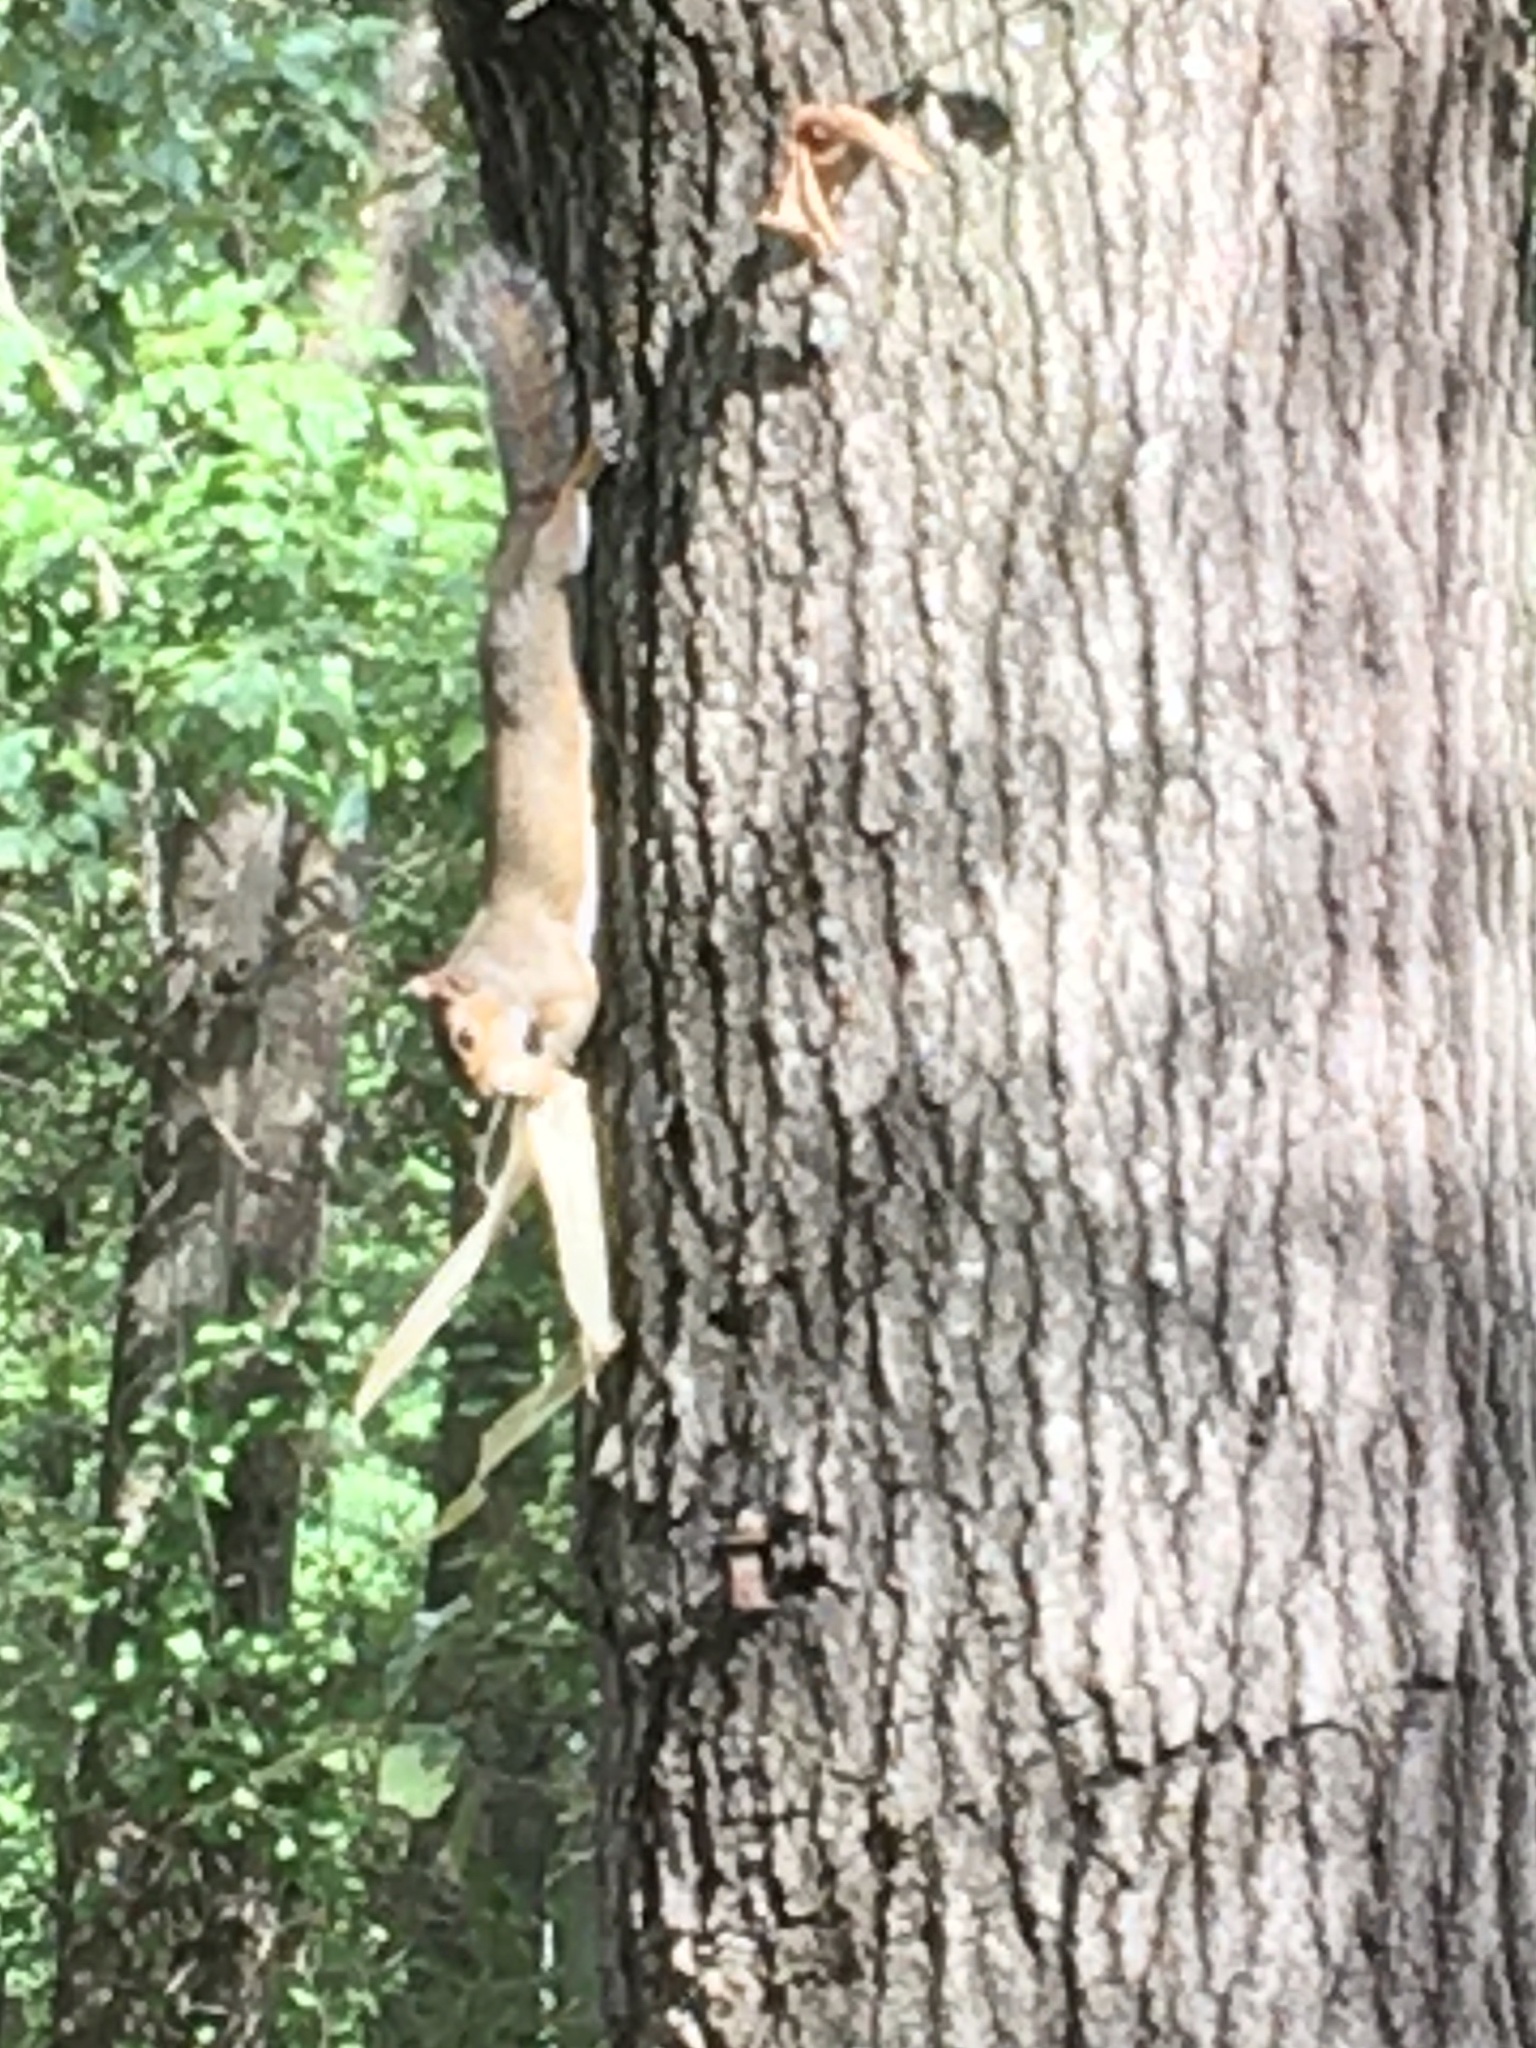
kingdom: Animalia
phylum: Chordata
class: Mammalia
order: Rodentia
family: Sciuridae
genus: Sciurus
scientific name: Sciurus carolinensis
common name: Eastern gray squirrel
